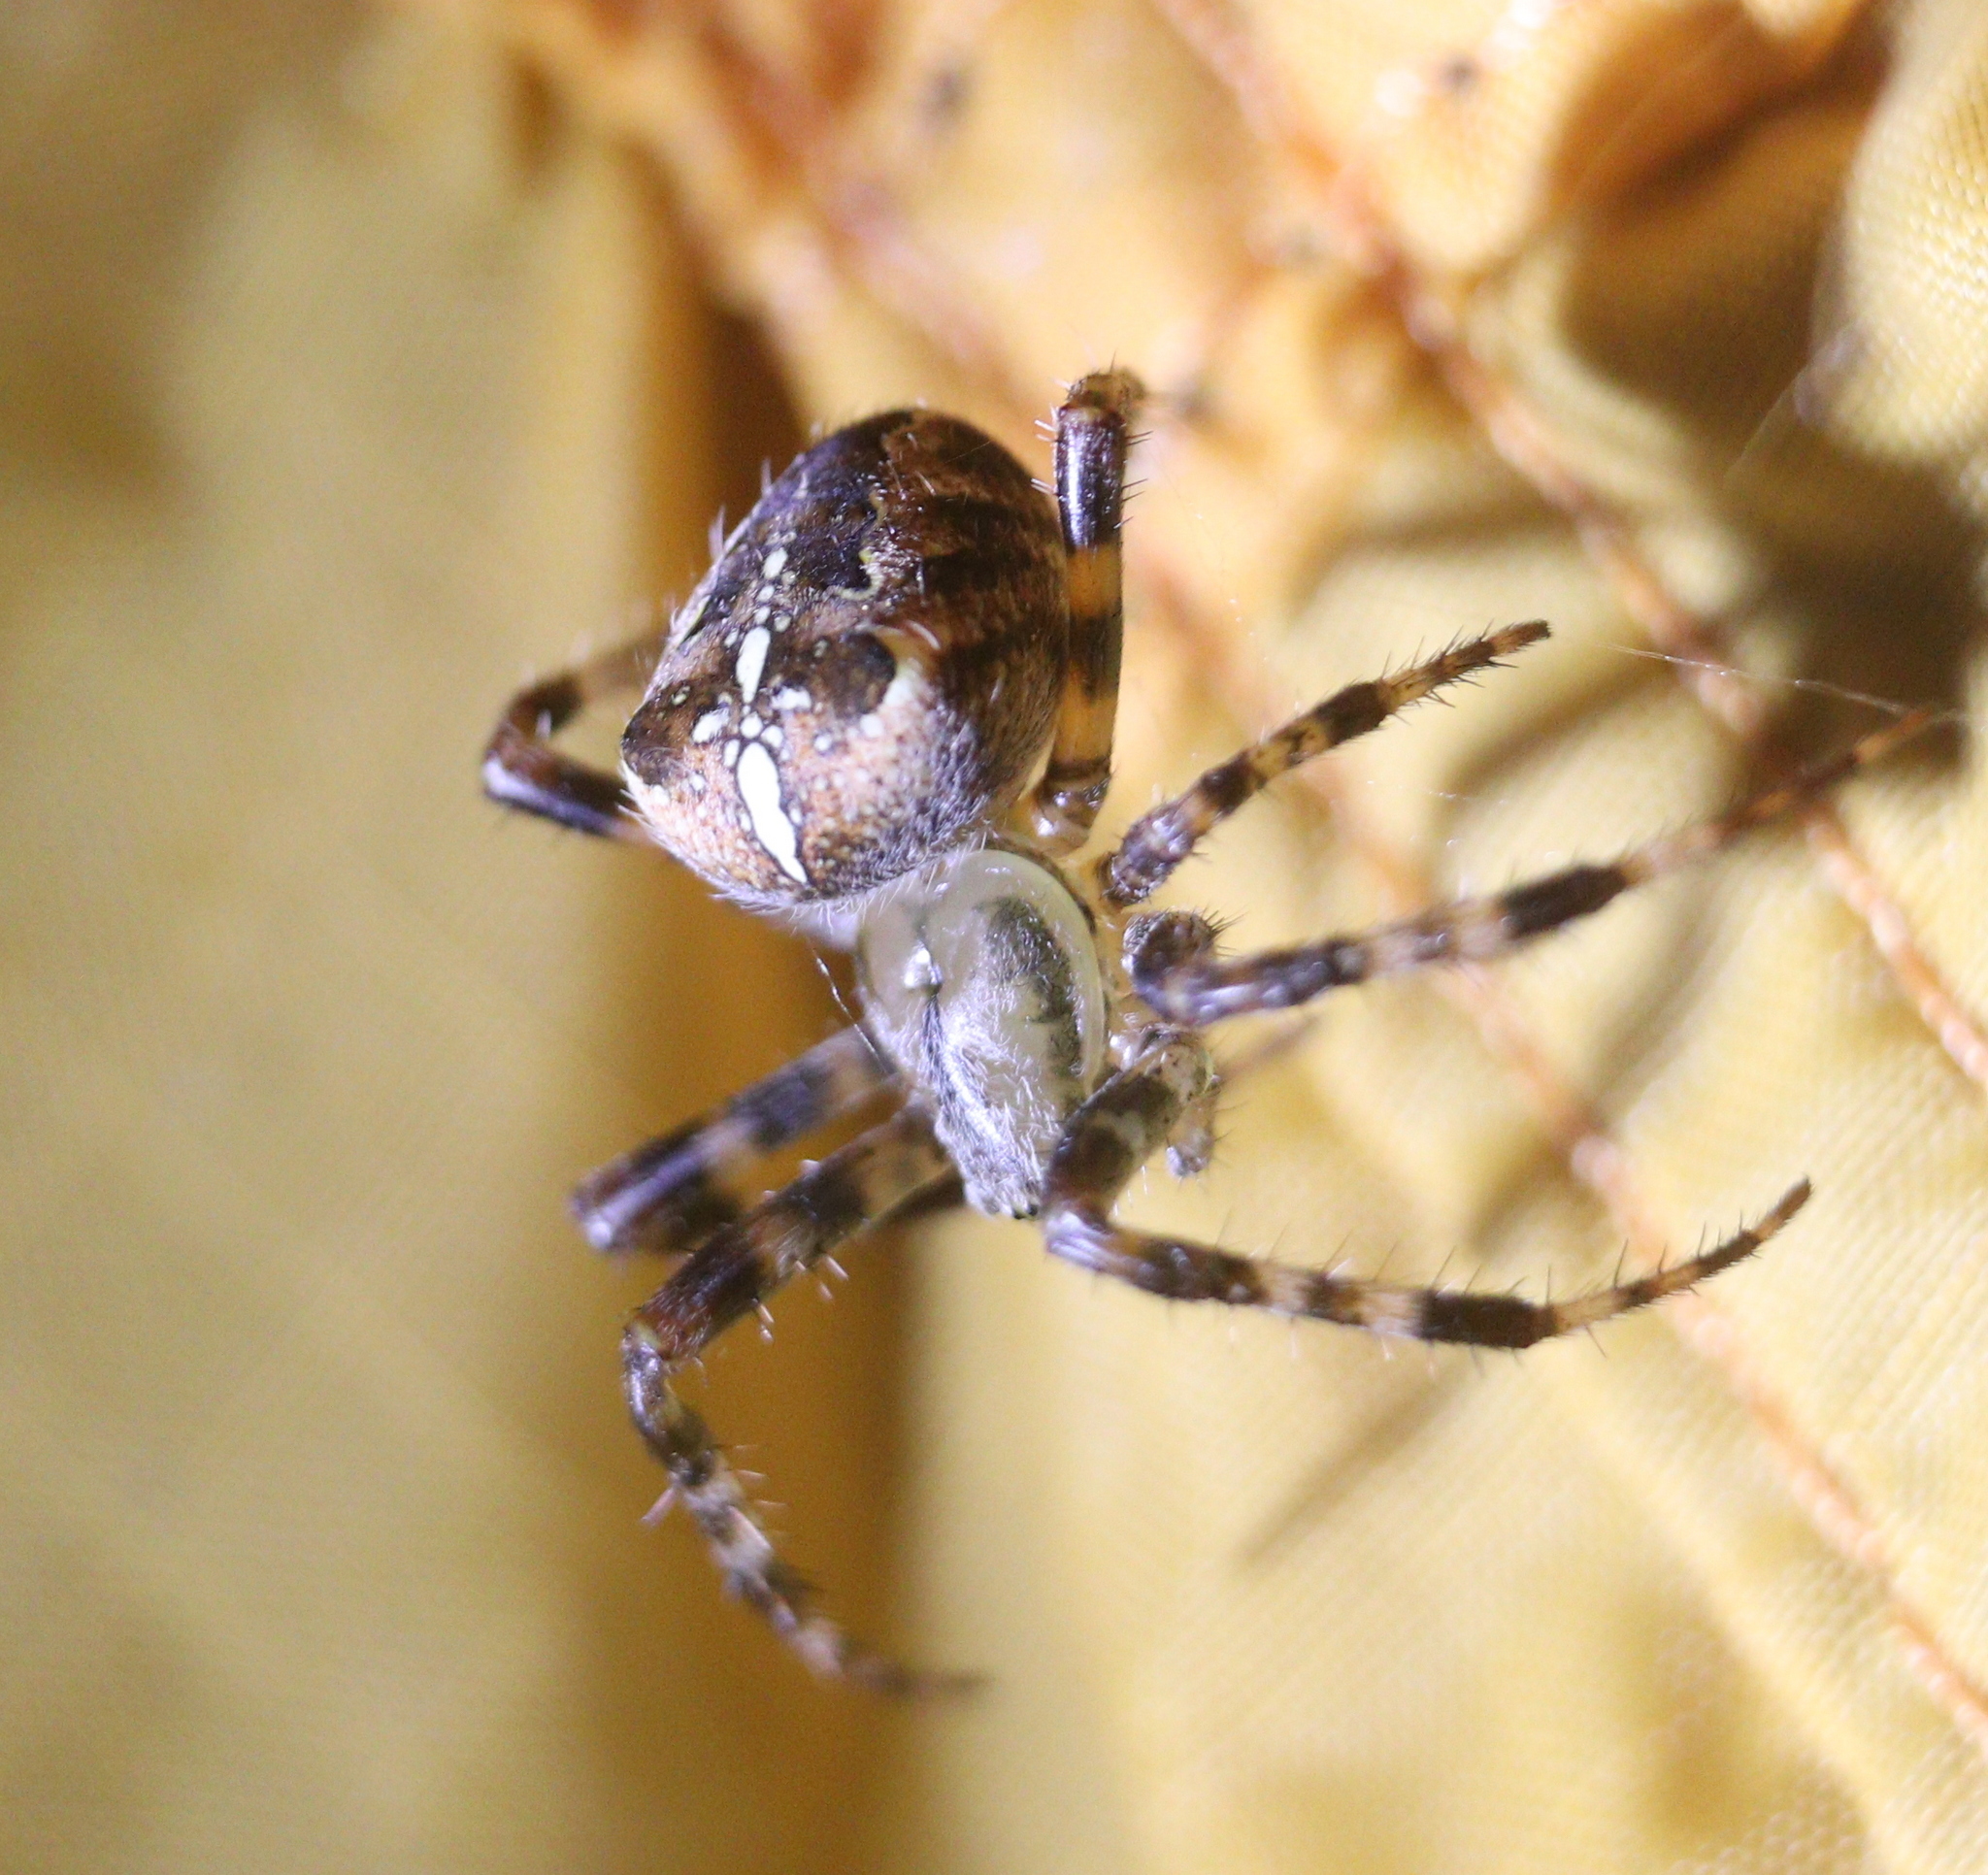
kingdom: Animalia
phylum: Arthropoda
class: Arachnida
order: Araneae
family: Araneidae
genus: Araneus
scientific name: Araneus diadematus
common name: Cross orbweaver
